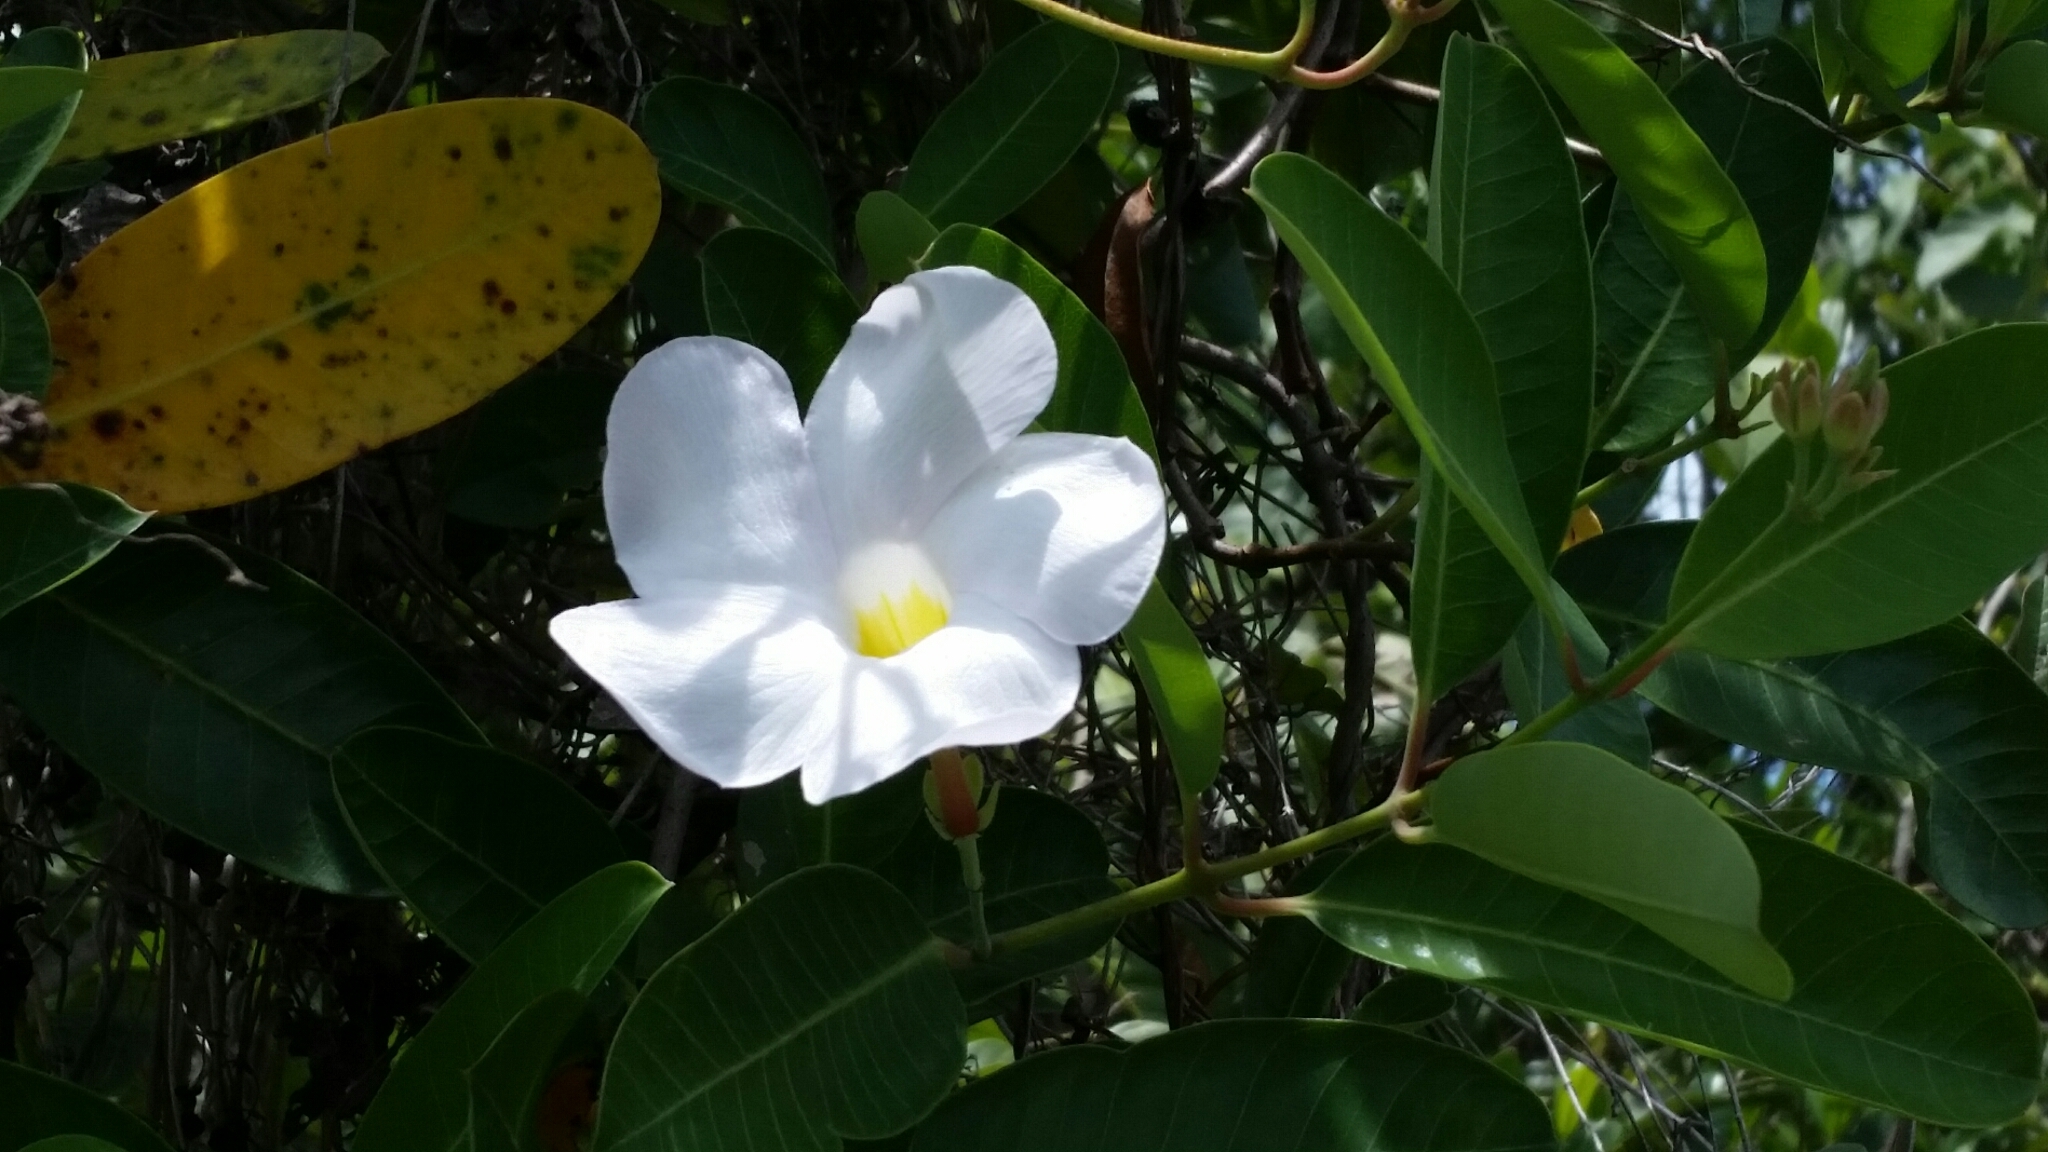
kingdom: Plantae
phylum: Tracheophyta
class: Magnoliopsida
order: Gentianales
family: Apocynaceae
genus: Rhabdadenia
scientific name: Rhabdadenia biflora
